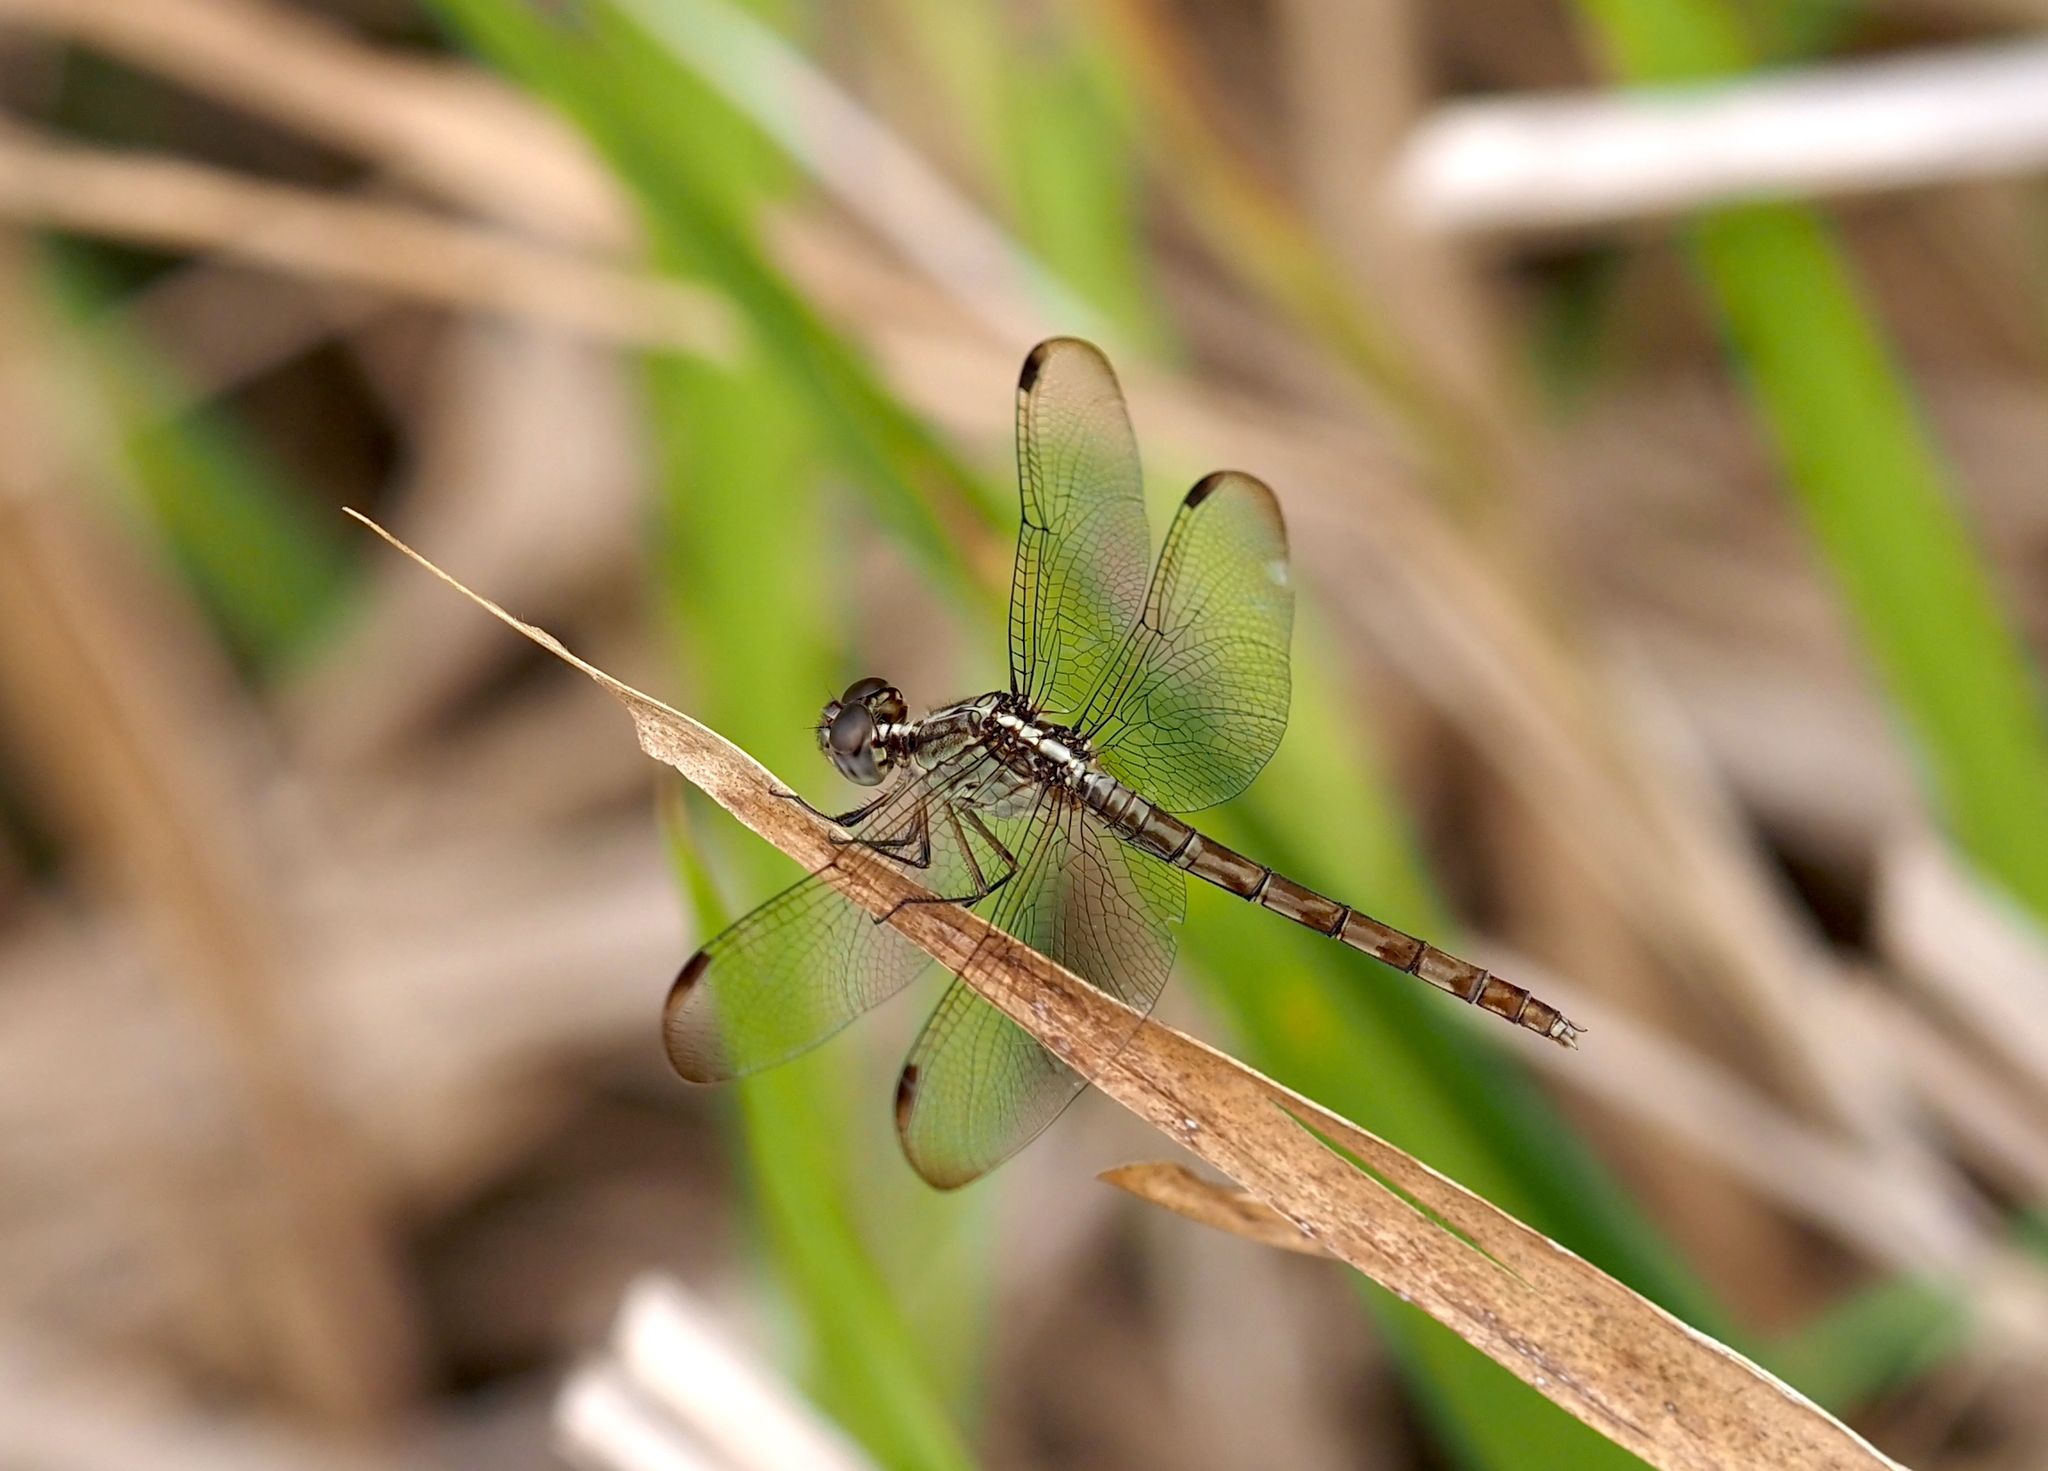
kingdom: Animalia
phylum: Arthropoda
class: Insecta
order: Odonata
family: Libellulidae
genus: Erythrodiplax
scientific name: Erythrodiplax umbrata
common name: Band-winged dragonlet
